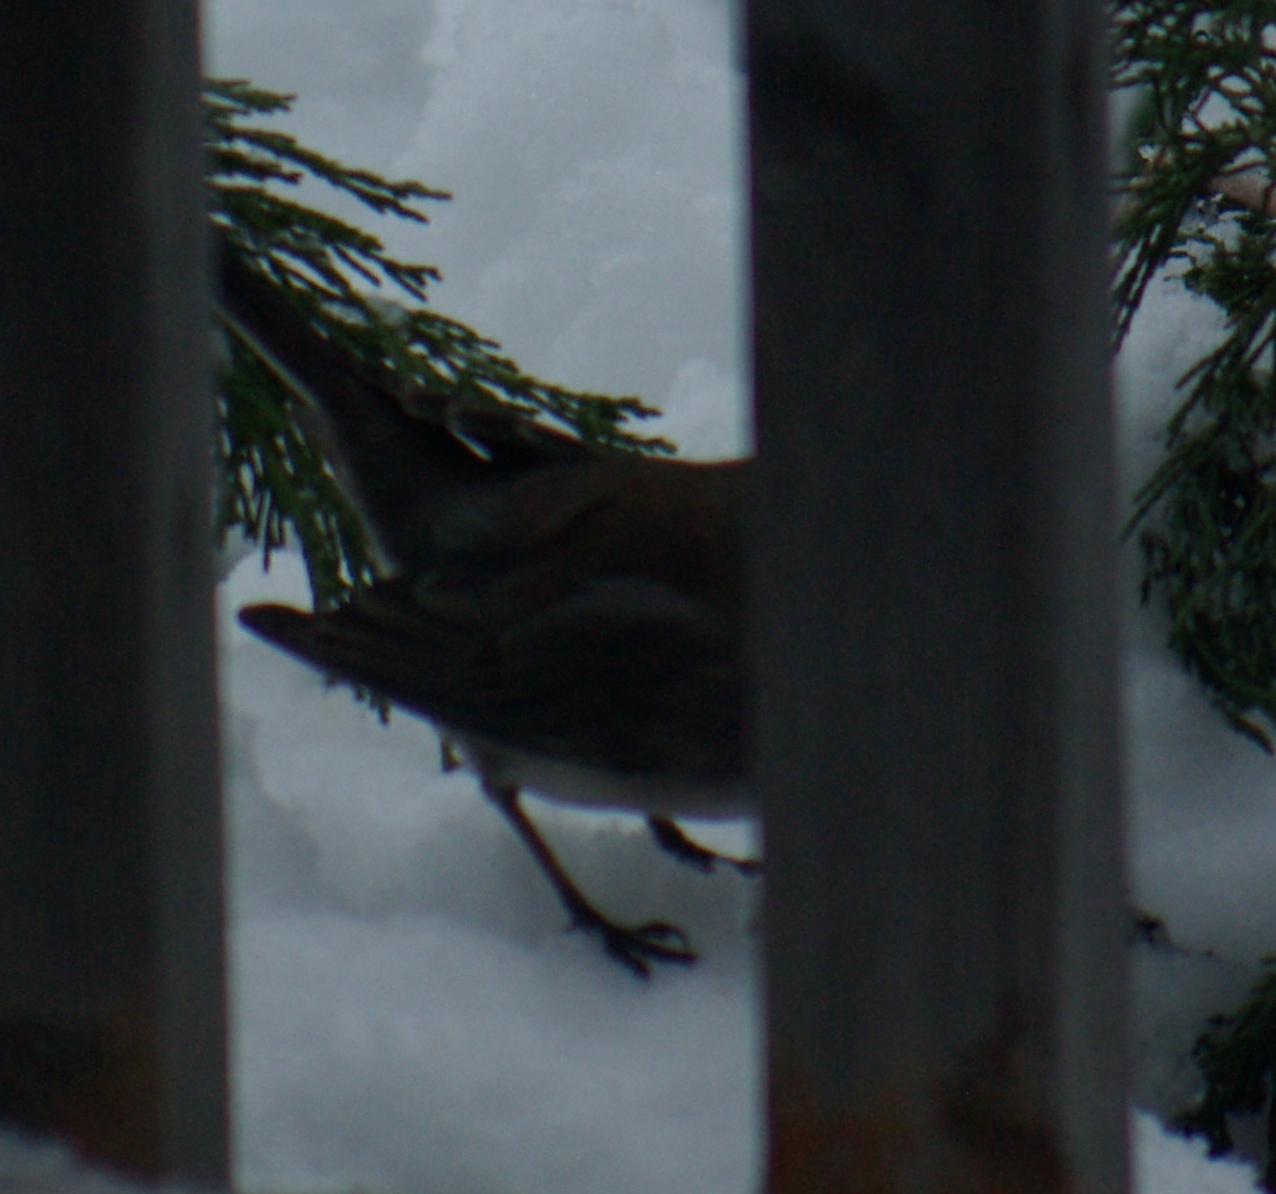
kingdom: Animalia
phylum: Chordata
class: Aves
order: Passeriformes
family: Passerellidae
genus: Junco
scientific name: Junco hyemalis
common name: Dark-eyed junco
